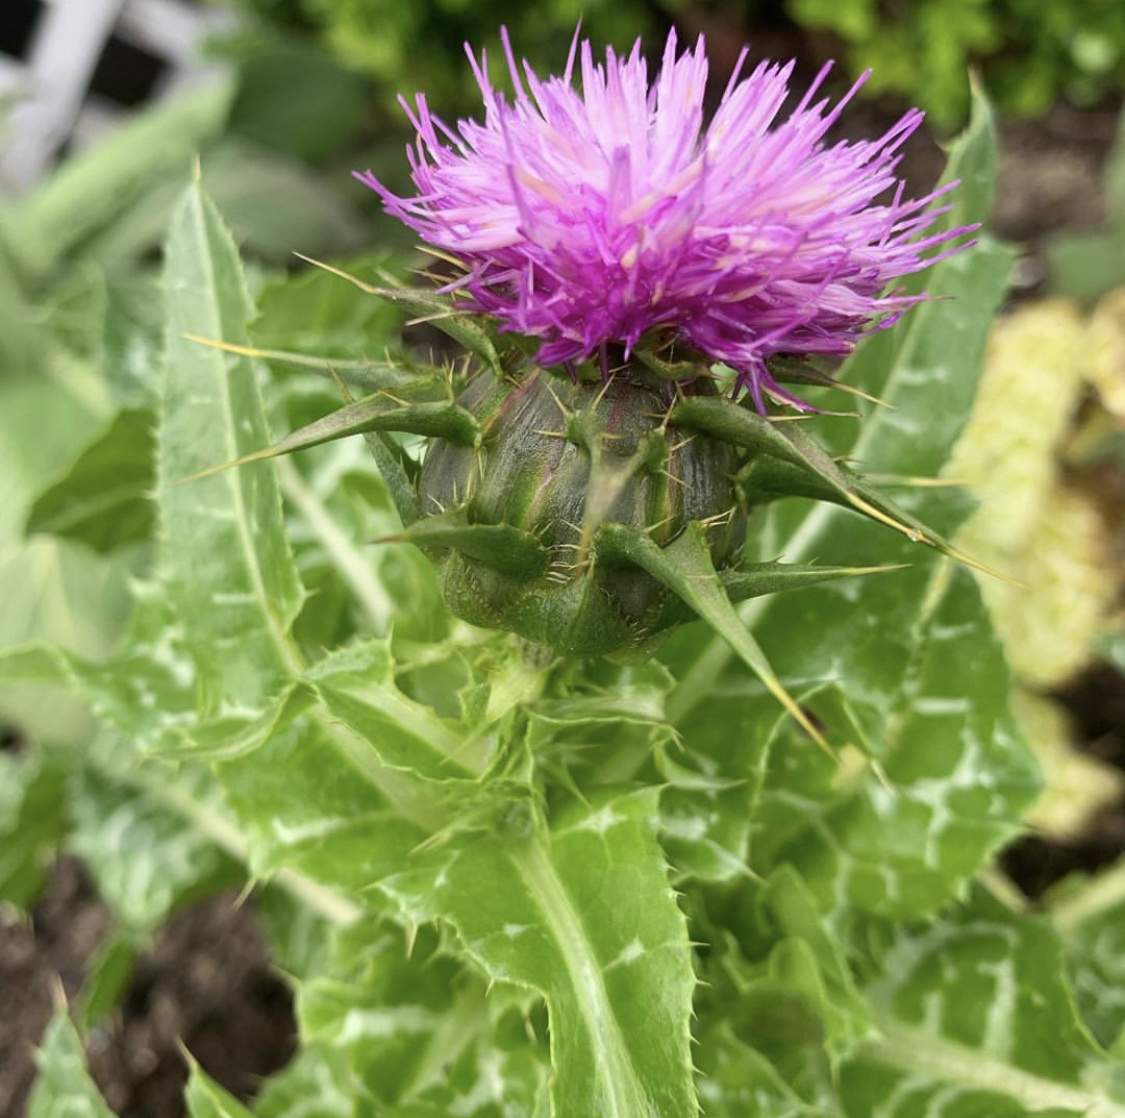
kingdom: Plantae
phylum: Tracheophyta
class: Magnoliopsida
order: Asterales
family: Asteraceae
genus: Silybum
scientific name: Silybum marianum
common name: Milk thistle
